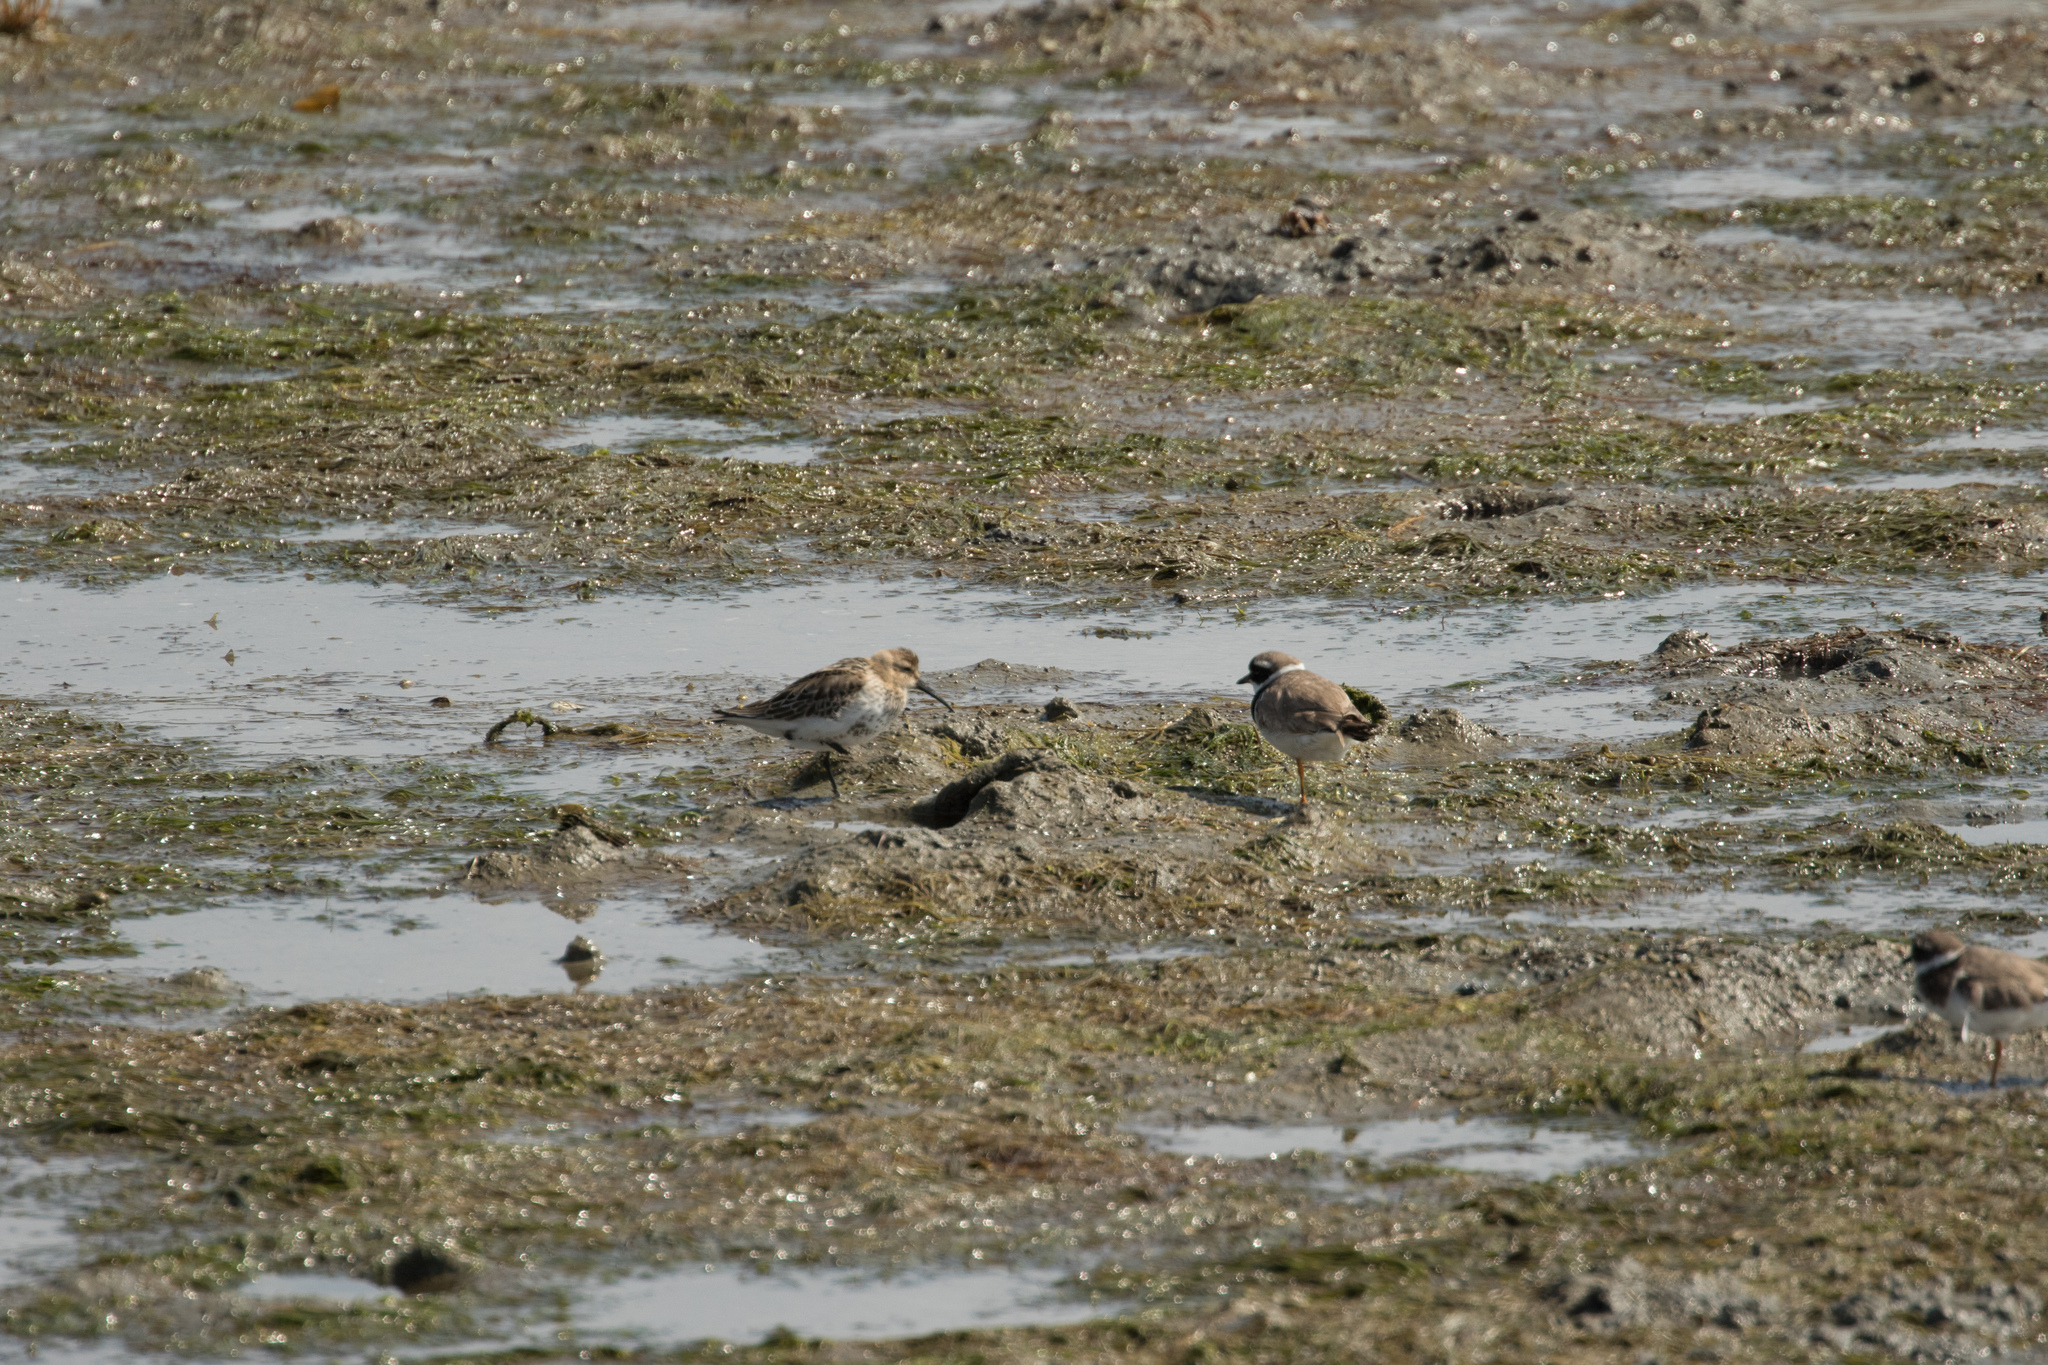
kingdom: Animalia
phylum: Chordata
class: Aves
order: Charadriiformes
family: Charadriidae
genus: Charadrius
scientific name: Charadrius hiaticula
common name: Common ringed plover
